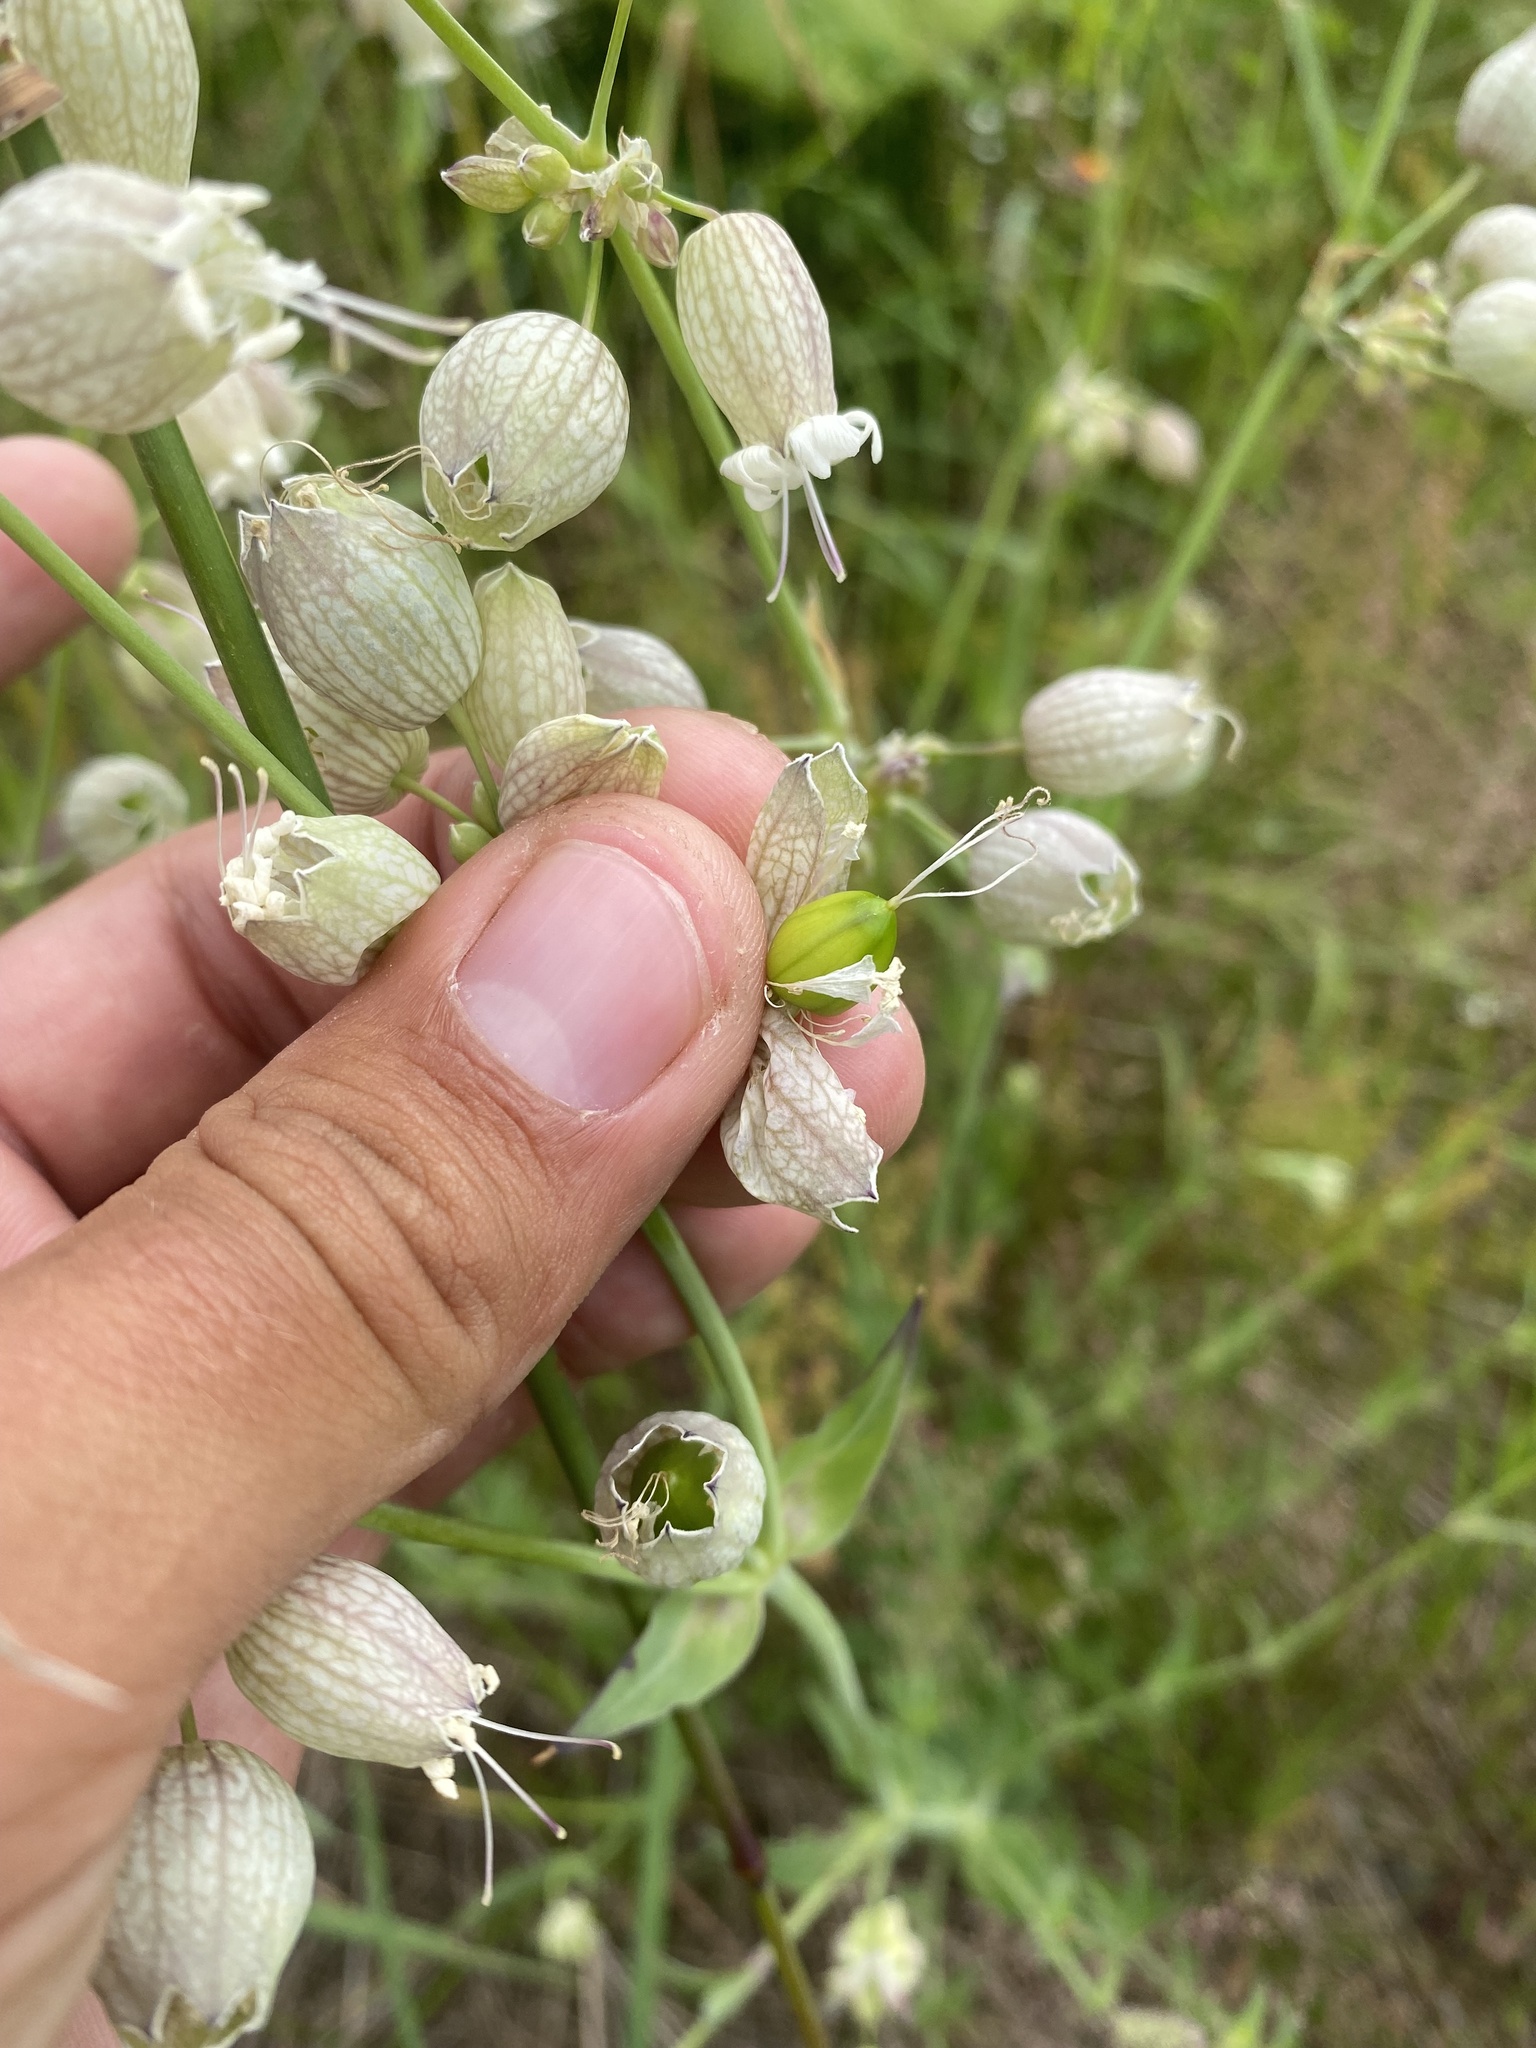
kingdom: Plantae
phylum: Tracheophyta
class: Magnoliopsida
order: Caryophyllales
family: Caryophyllaceae
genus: Silene
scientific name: Silene vulgaris
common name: Bladder campion
